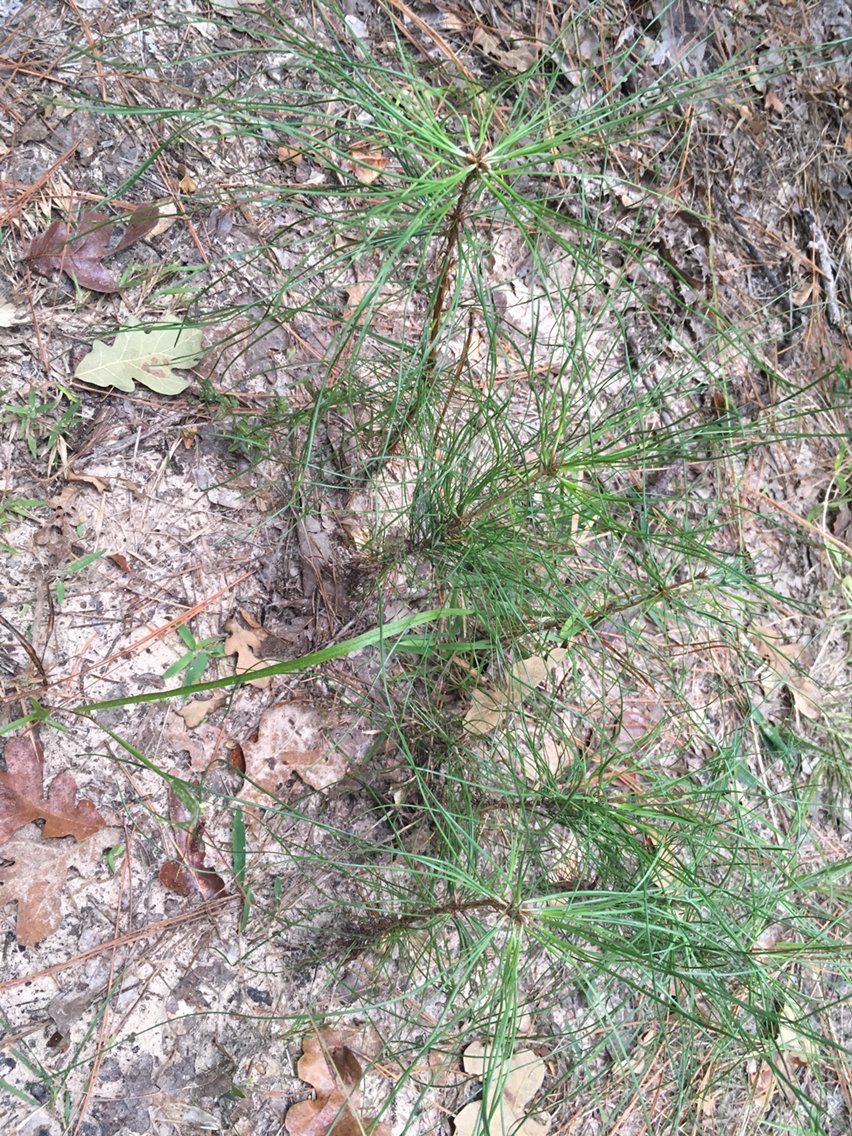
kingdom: Plantae
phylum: Tracheophyta
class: Pinopsida
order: Pinales
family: Pinaceae
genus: Pinus
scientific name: Pinus taeda
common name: Loblolly pine
